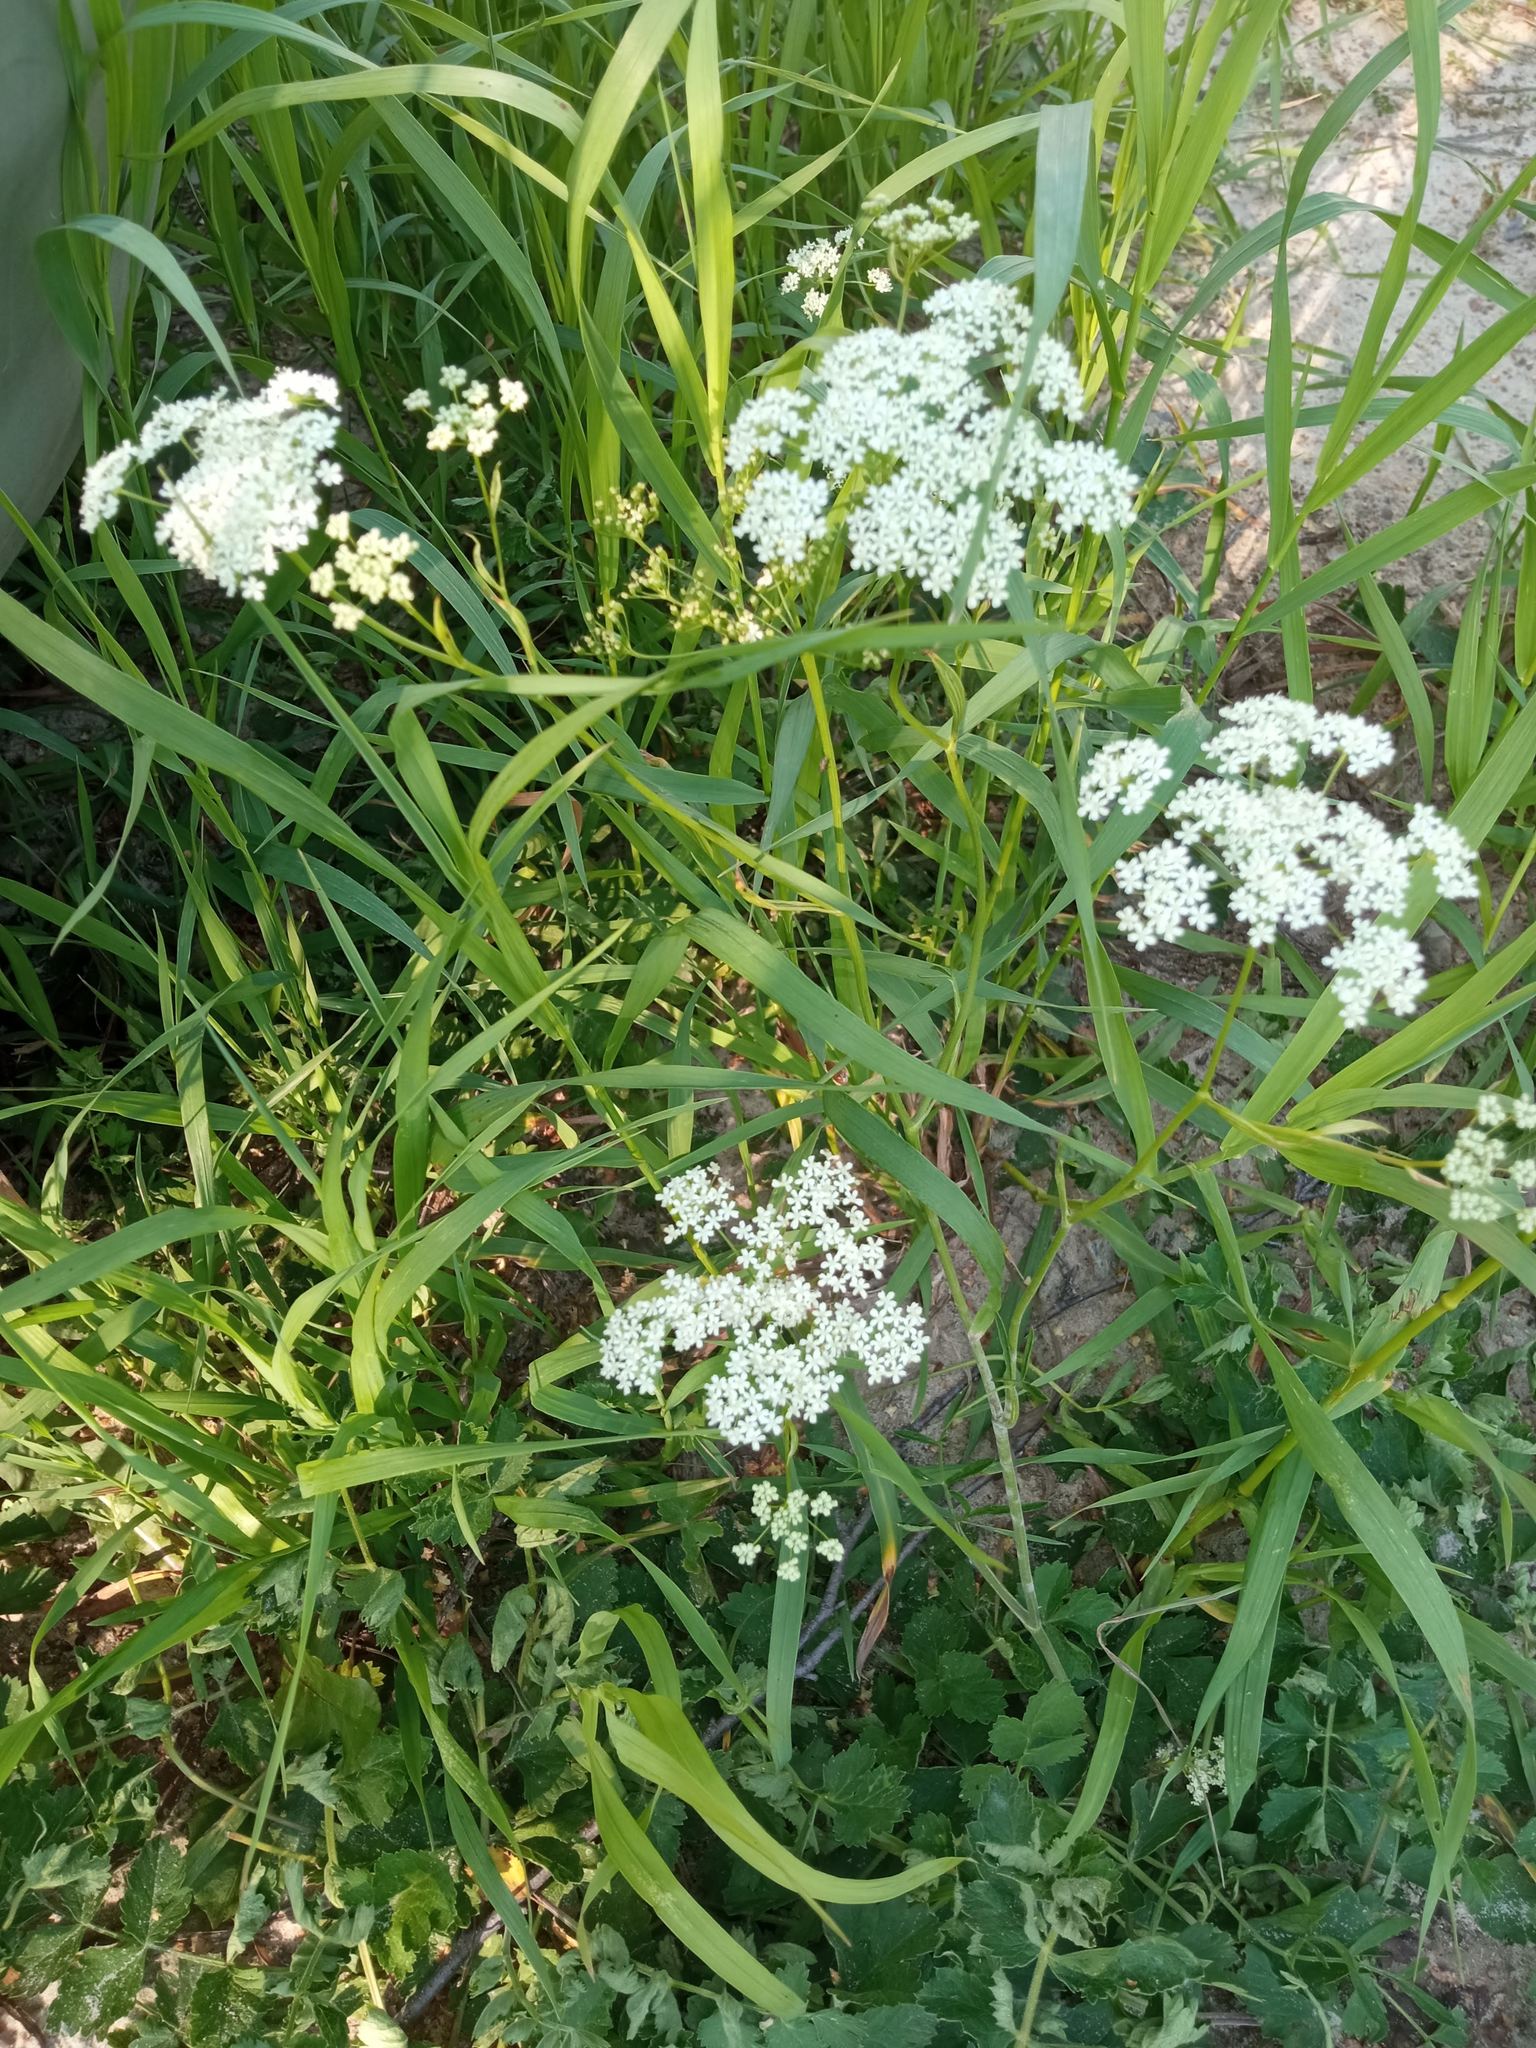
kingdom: Plantae
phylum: Tracheophyta
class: Magnoliopsida
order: Apiales
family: Apiaceae
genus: Pimpinella
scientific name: Pimpinella saxifraga
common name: Burnet-saxifrage
